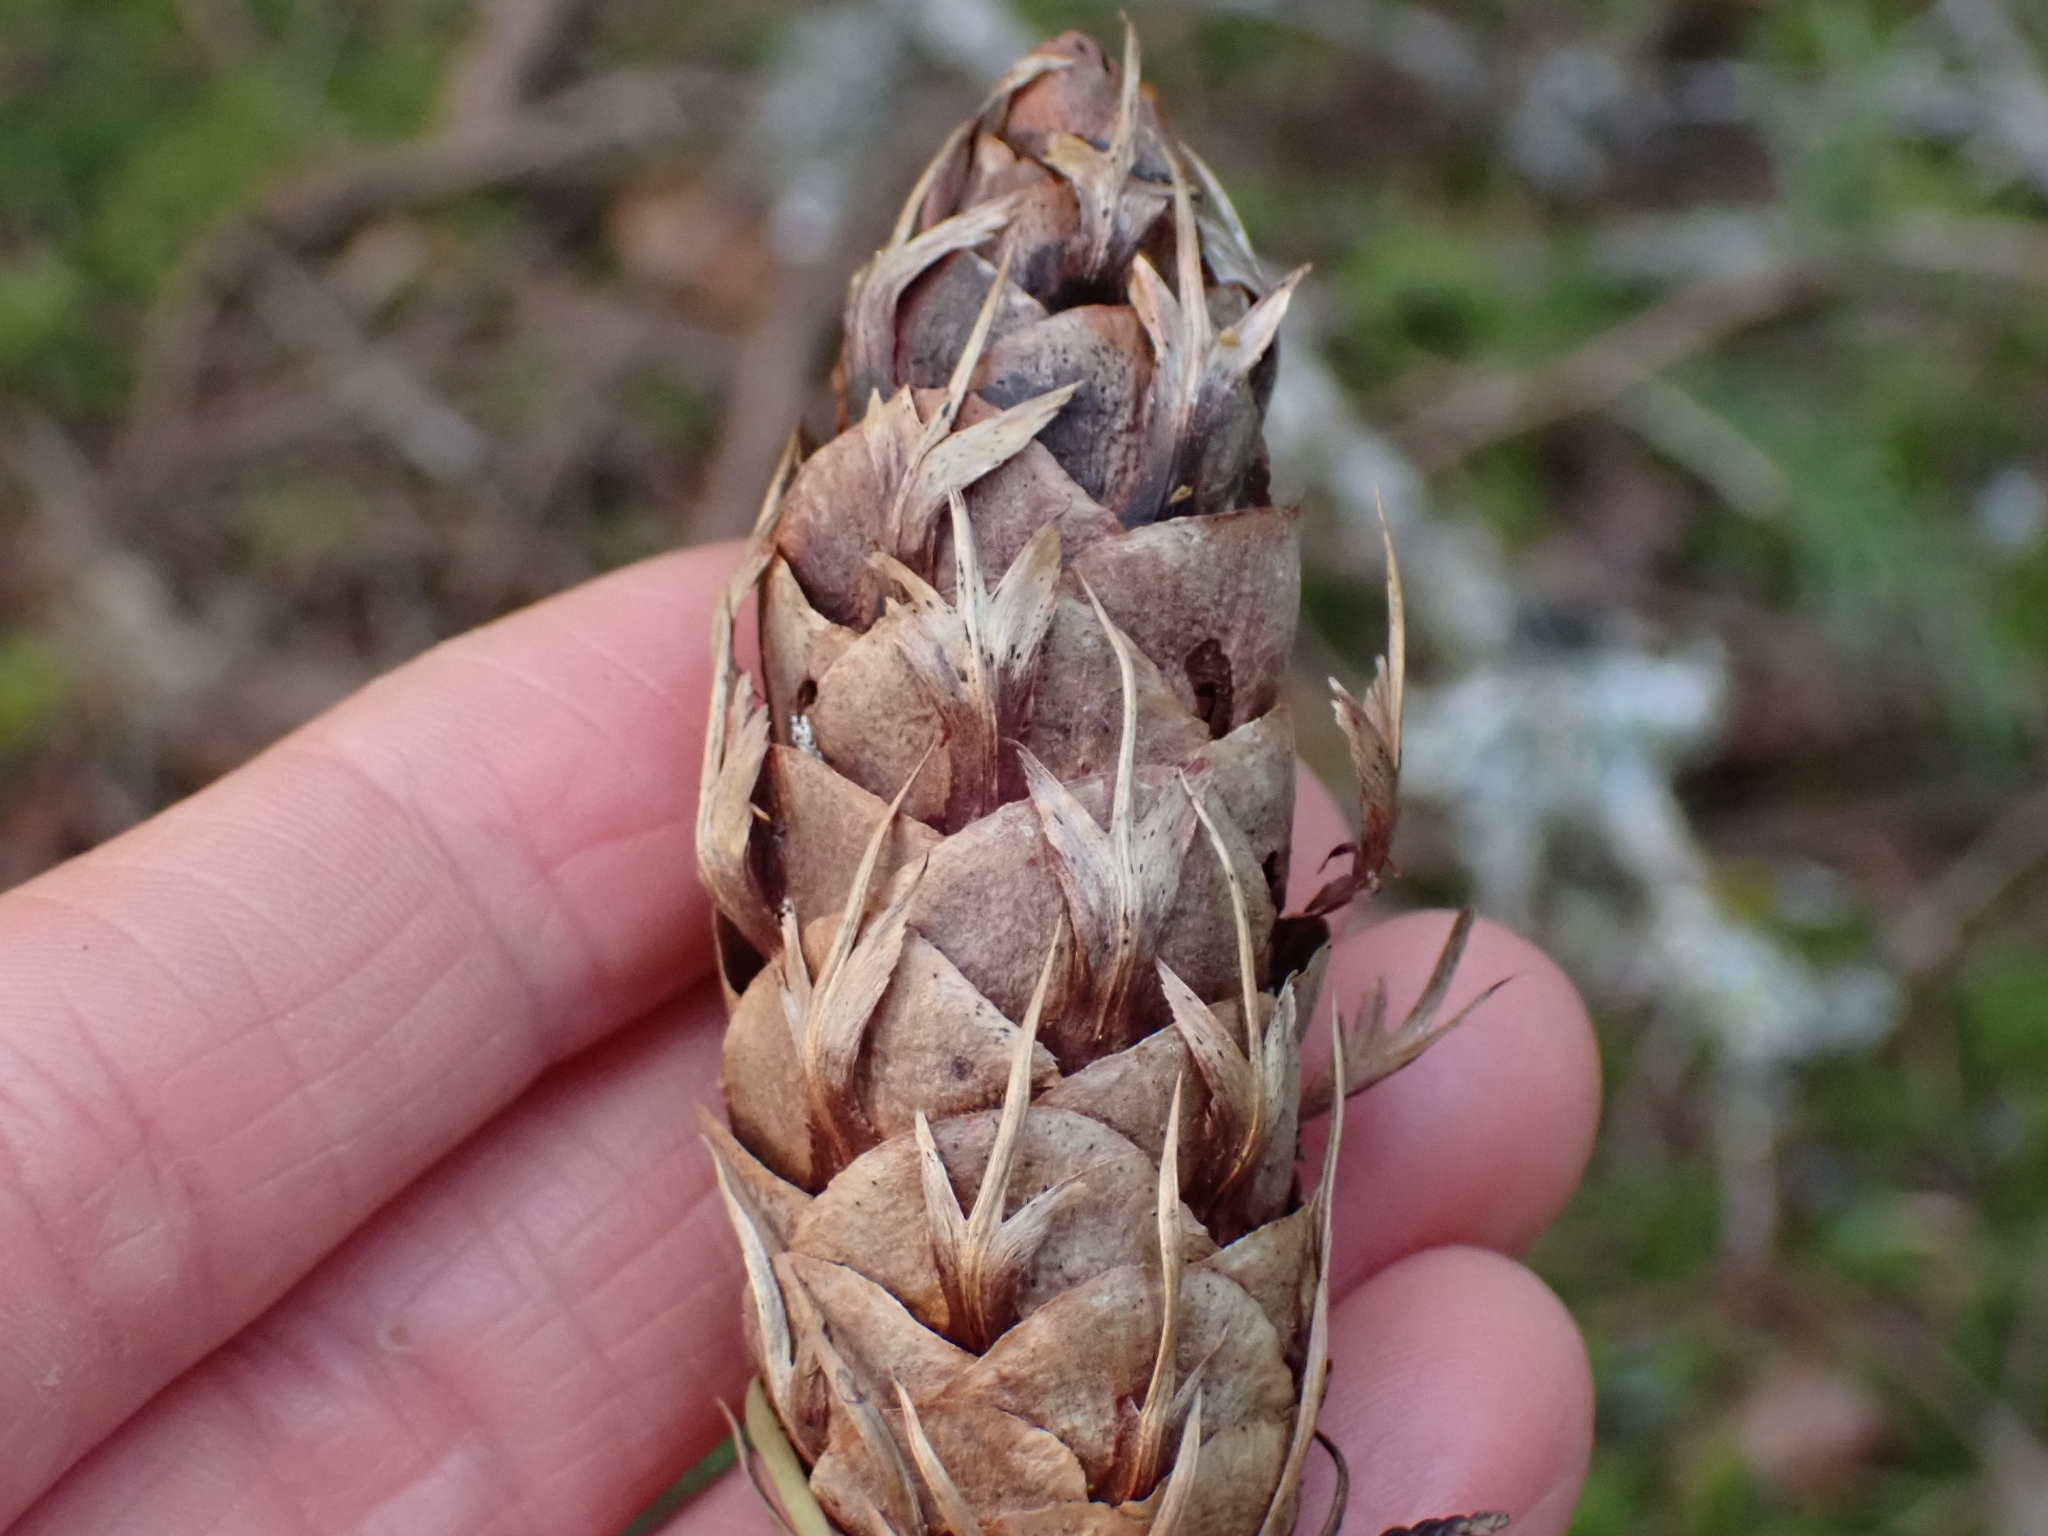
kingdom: Plantae
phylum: Tracheophyta
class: Pinopsida
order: Pinales
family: Pinaceae
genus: Pseudotsuga
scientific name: Pseudotsuga menziesii
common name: Douglas fir
